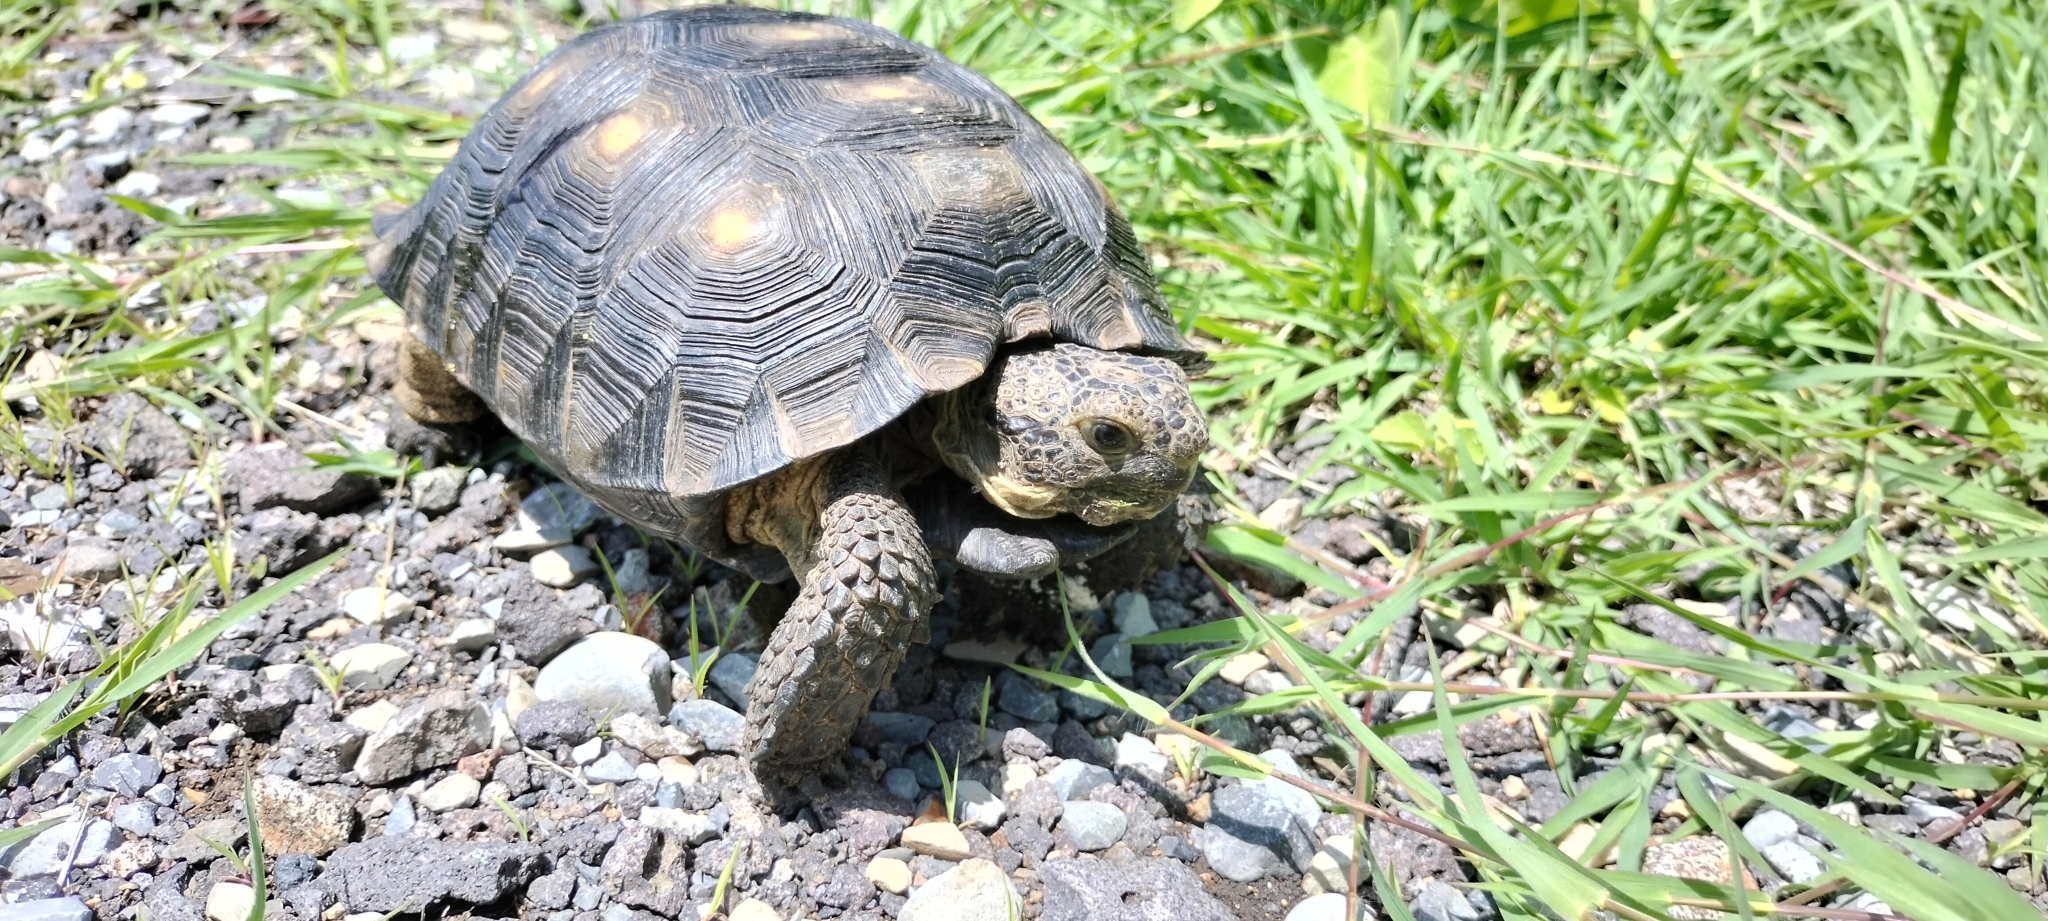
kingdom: Animalia
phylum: Chordata
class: Testudines
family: Testudinidae
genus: Gopherus
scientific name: Gopherus berlandieri
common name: Texas (gopher )tortoise
